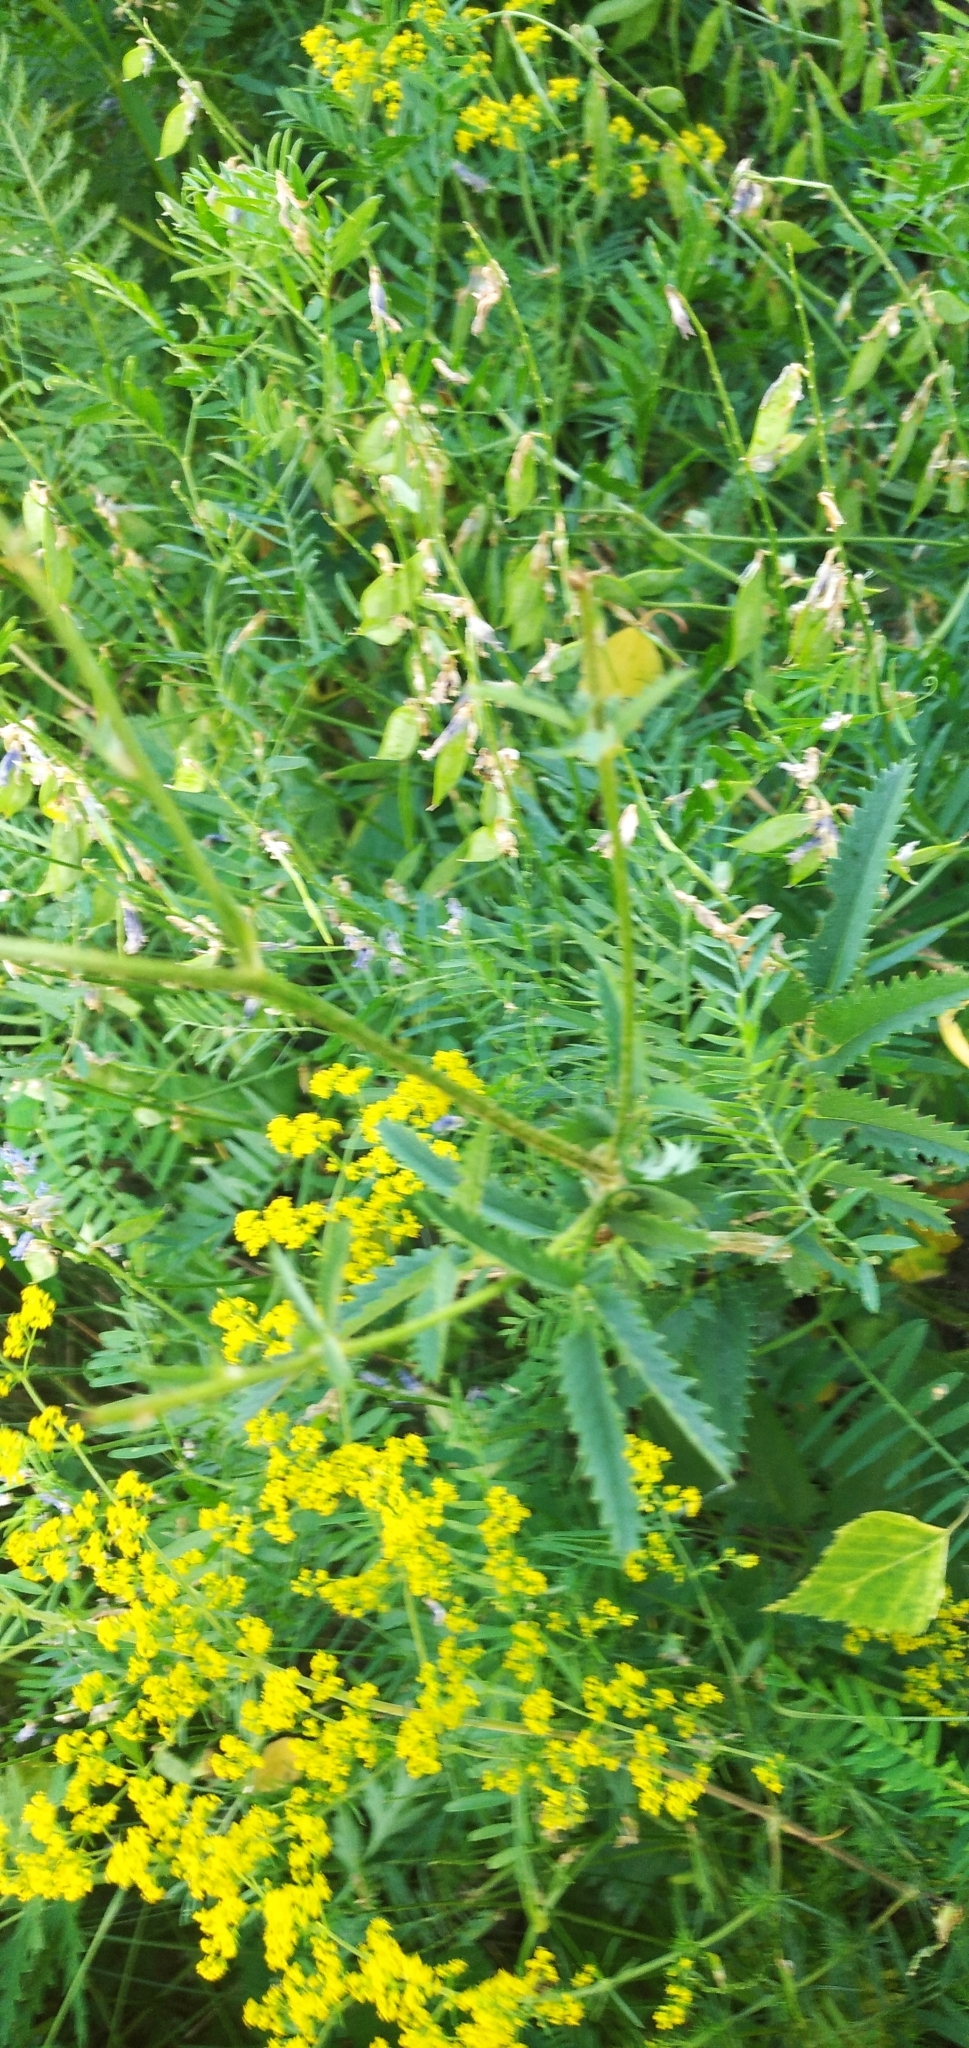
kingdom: Plantae
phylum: Tracheophyta
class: Magnoliopsida
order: Rosales
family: Rosaceae
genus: Sanguisorba
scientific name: Sanguisorba officinalis
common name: Great burnet
